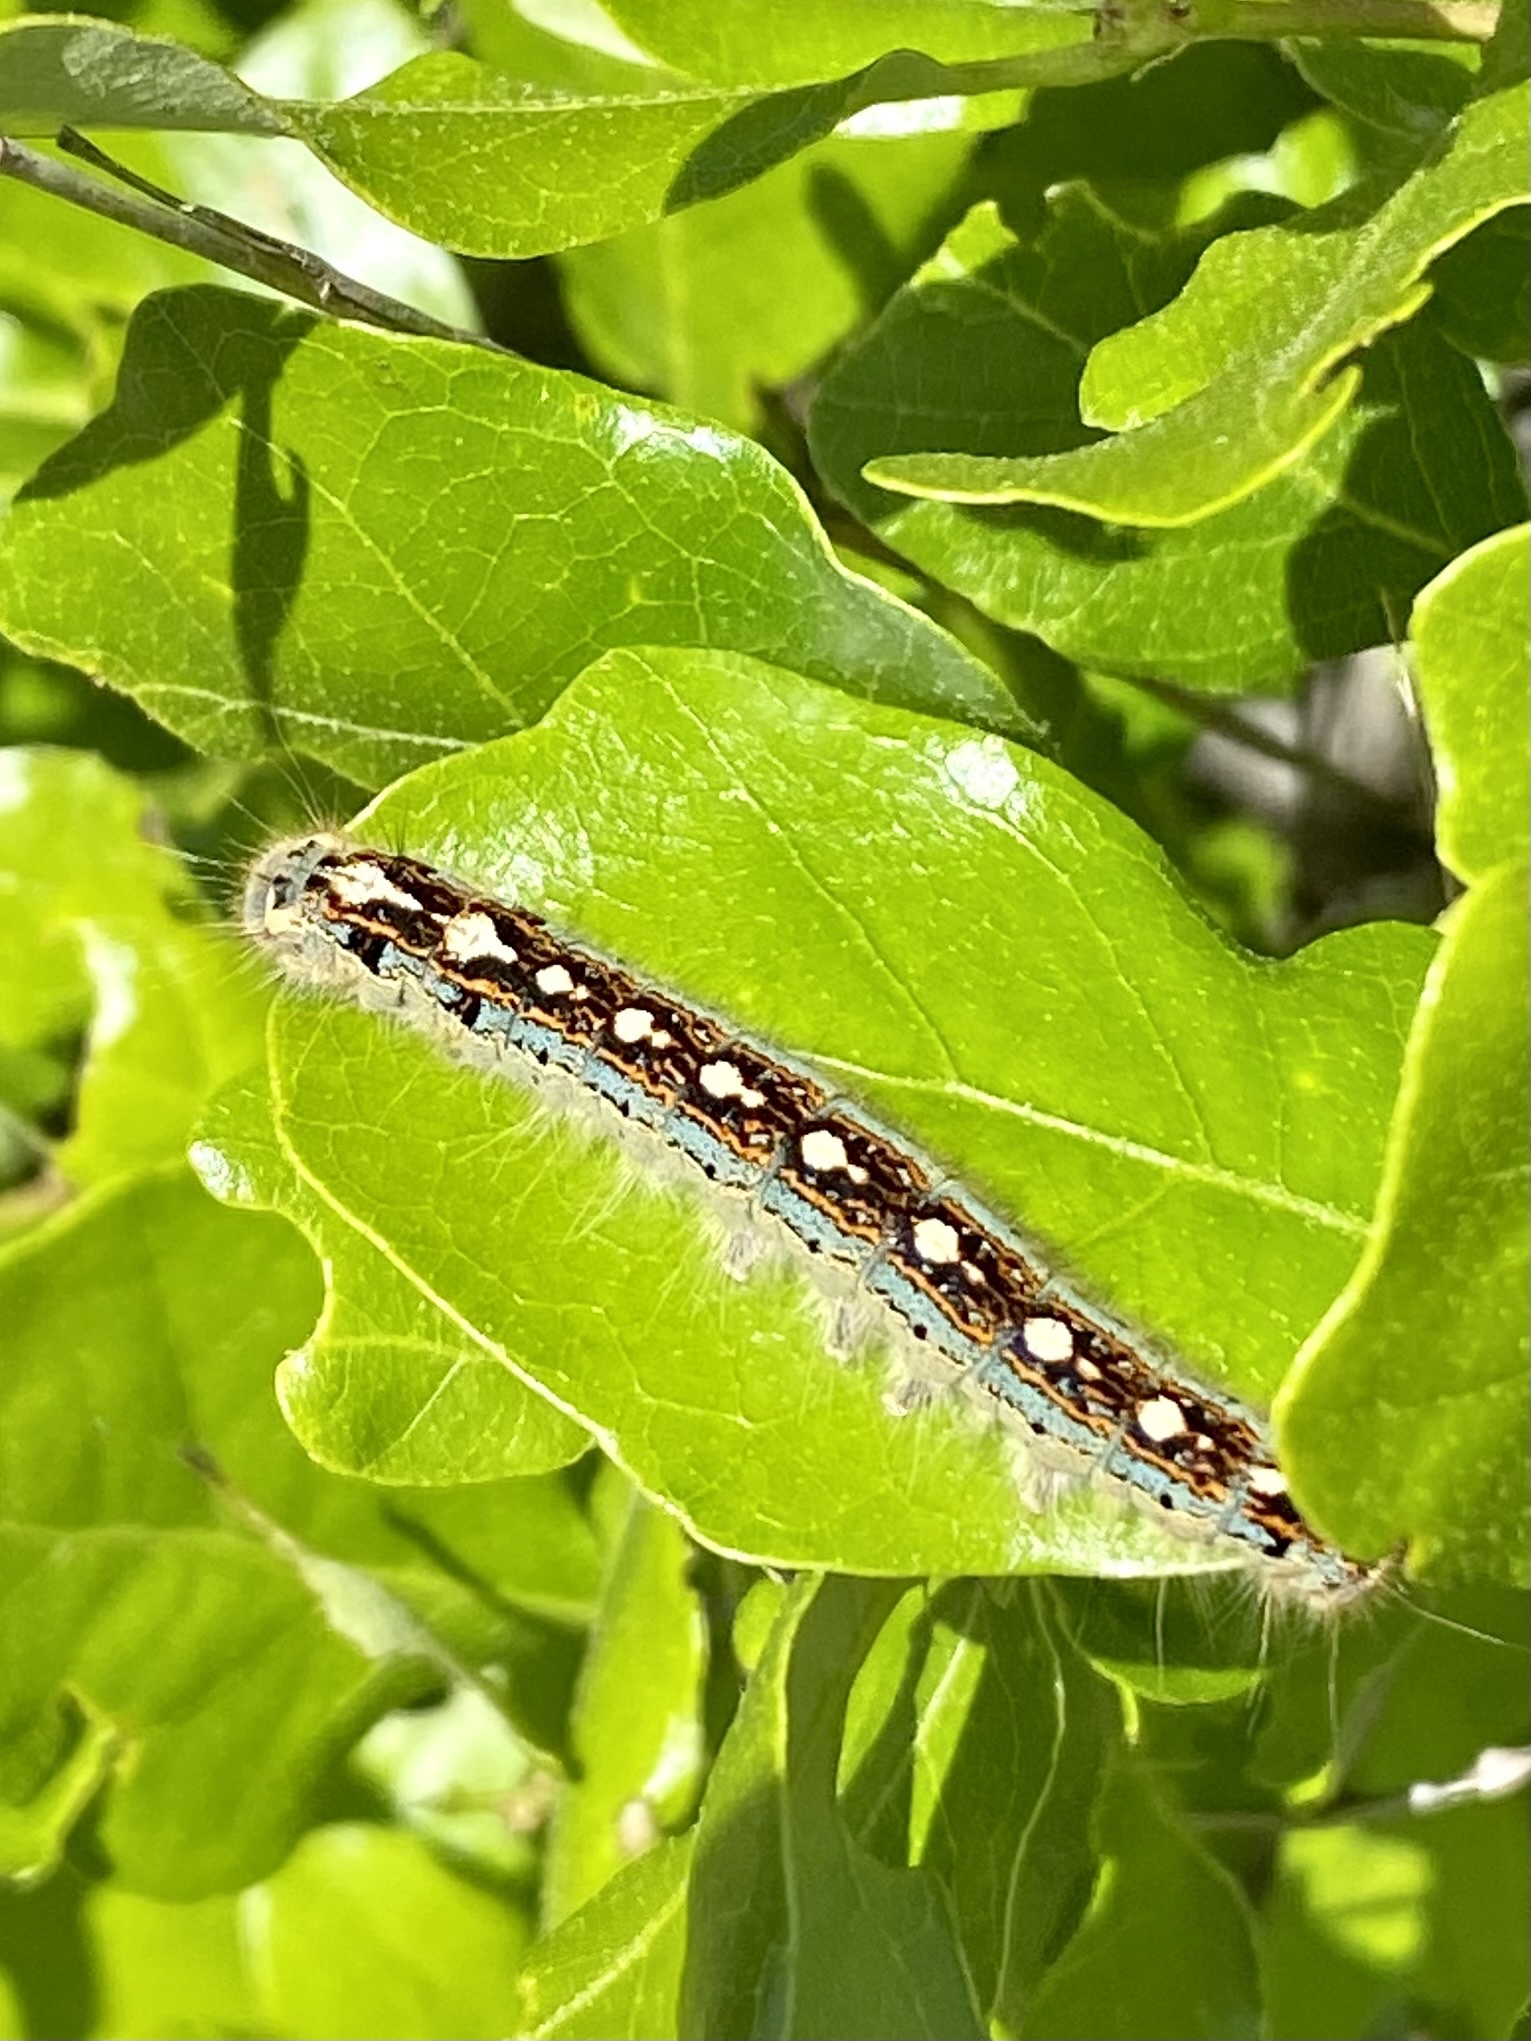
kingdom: Animalia
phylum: Arthropoda
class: Insecta
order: Lepidoptera
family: Lasiocampidae
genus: Malacosoma
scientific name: Malacosoma disstria
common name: Forest tent caterpillar
